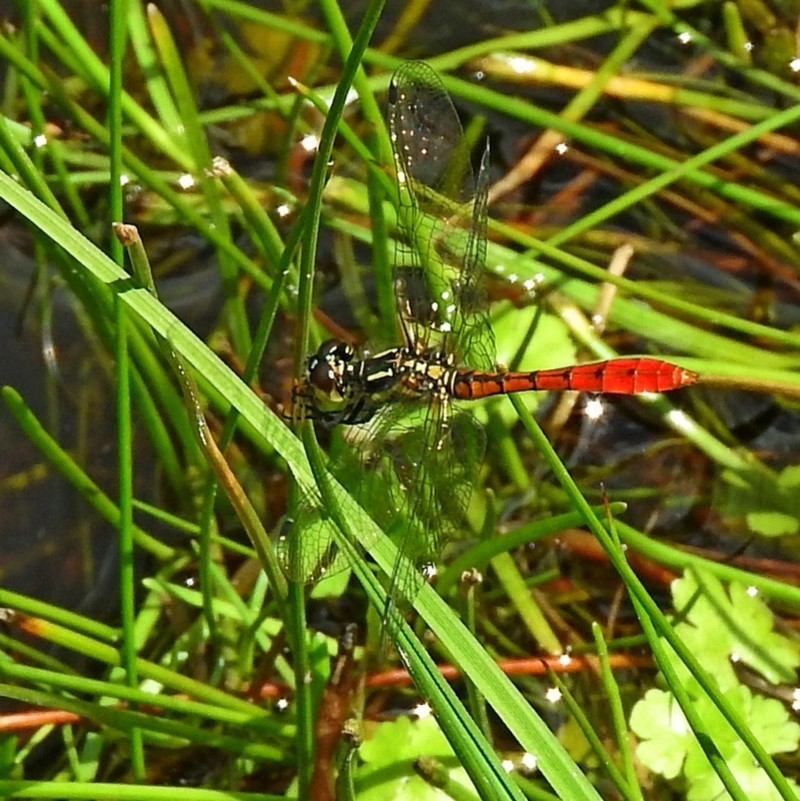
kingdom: Animalia
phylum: Arthropoda
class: Insecta
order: Odonata
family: Libellulidae
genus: Nannophya
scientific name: Nannophya dalei
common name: Eastern pygmyfly
